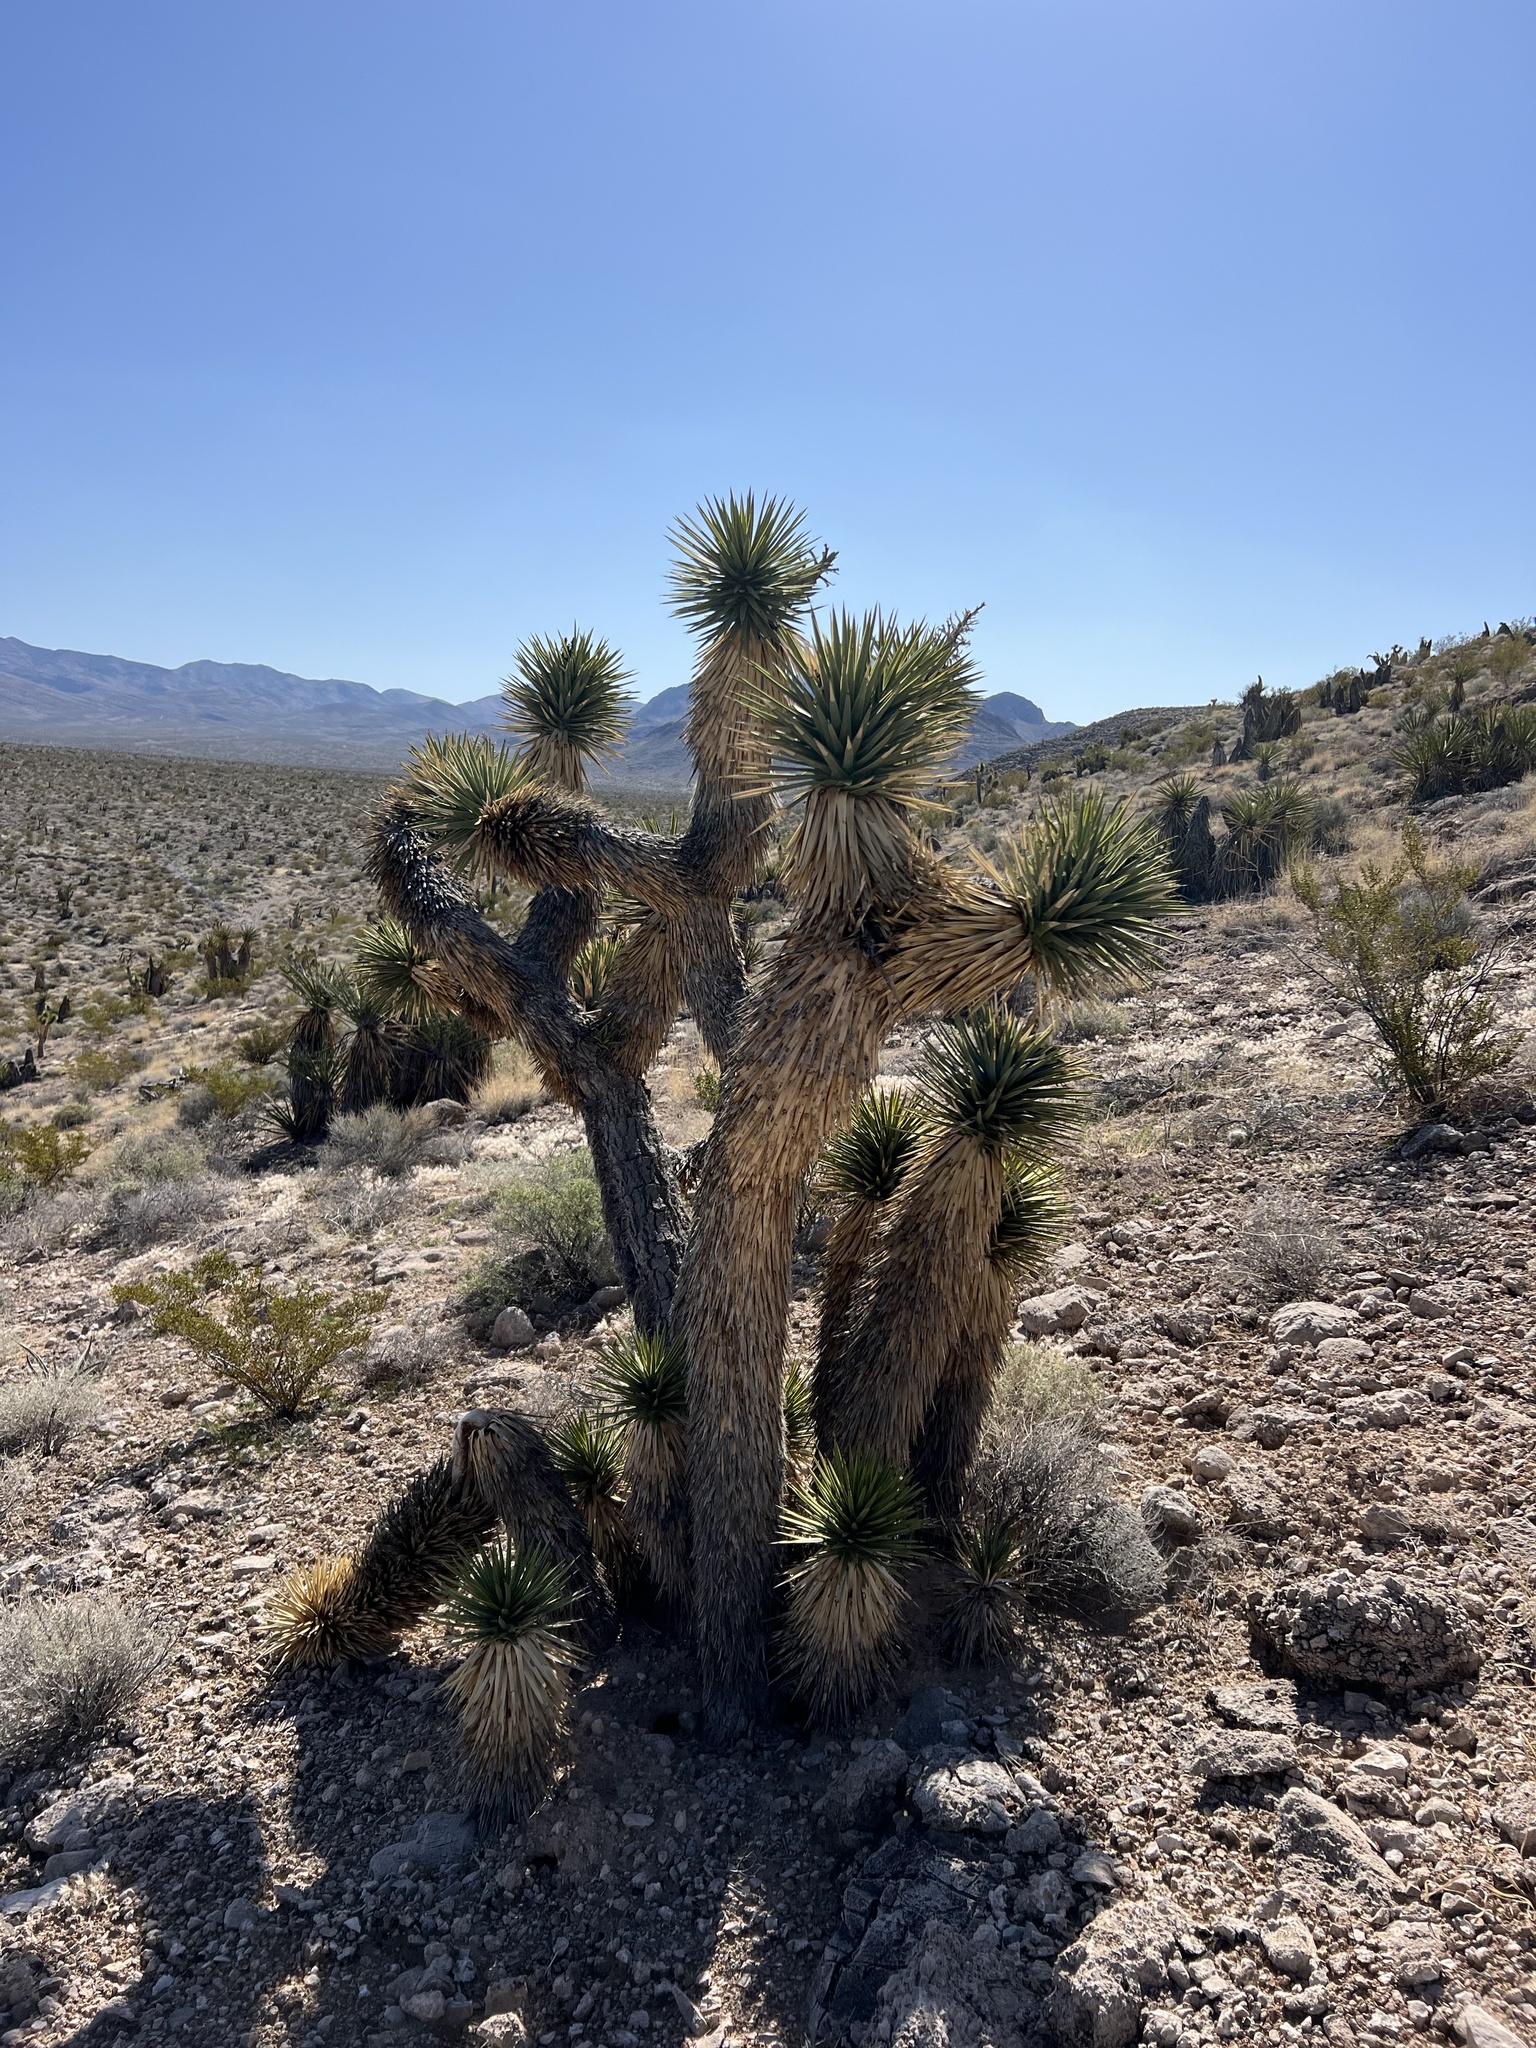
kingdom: Plantae
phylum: Tracheophyta
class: Liliopsida
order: Asparagales
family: Asparagaceae
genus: Yucca
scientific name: Yucca brevifolia
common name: Joshua tree
